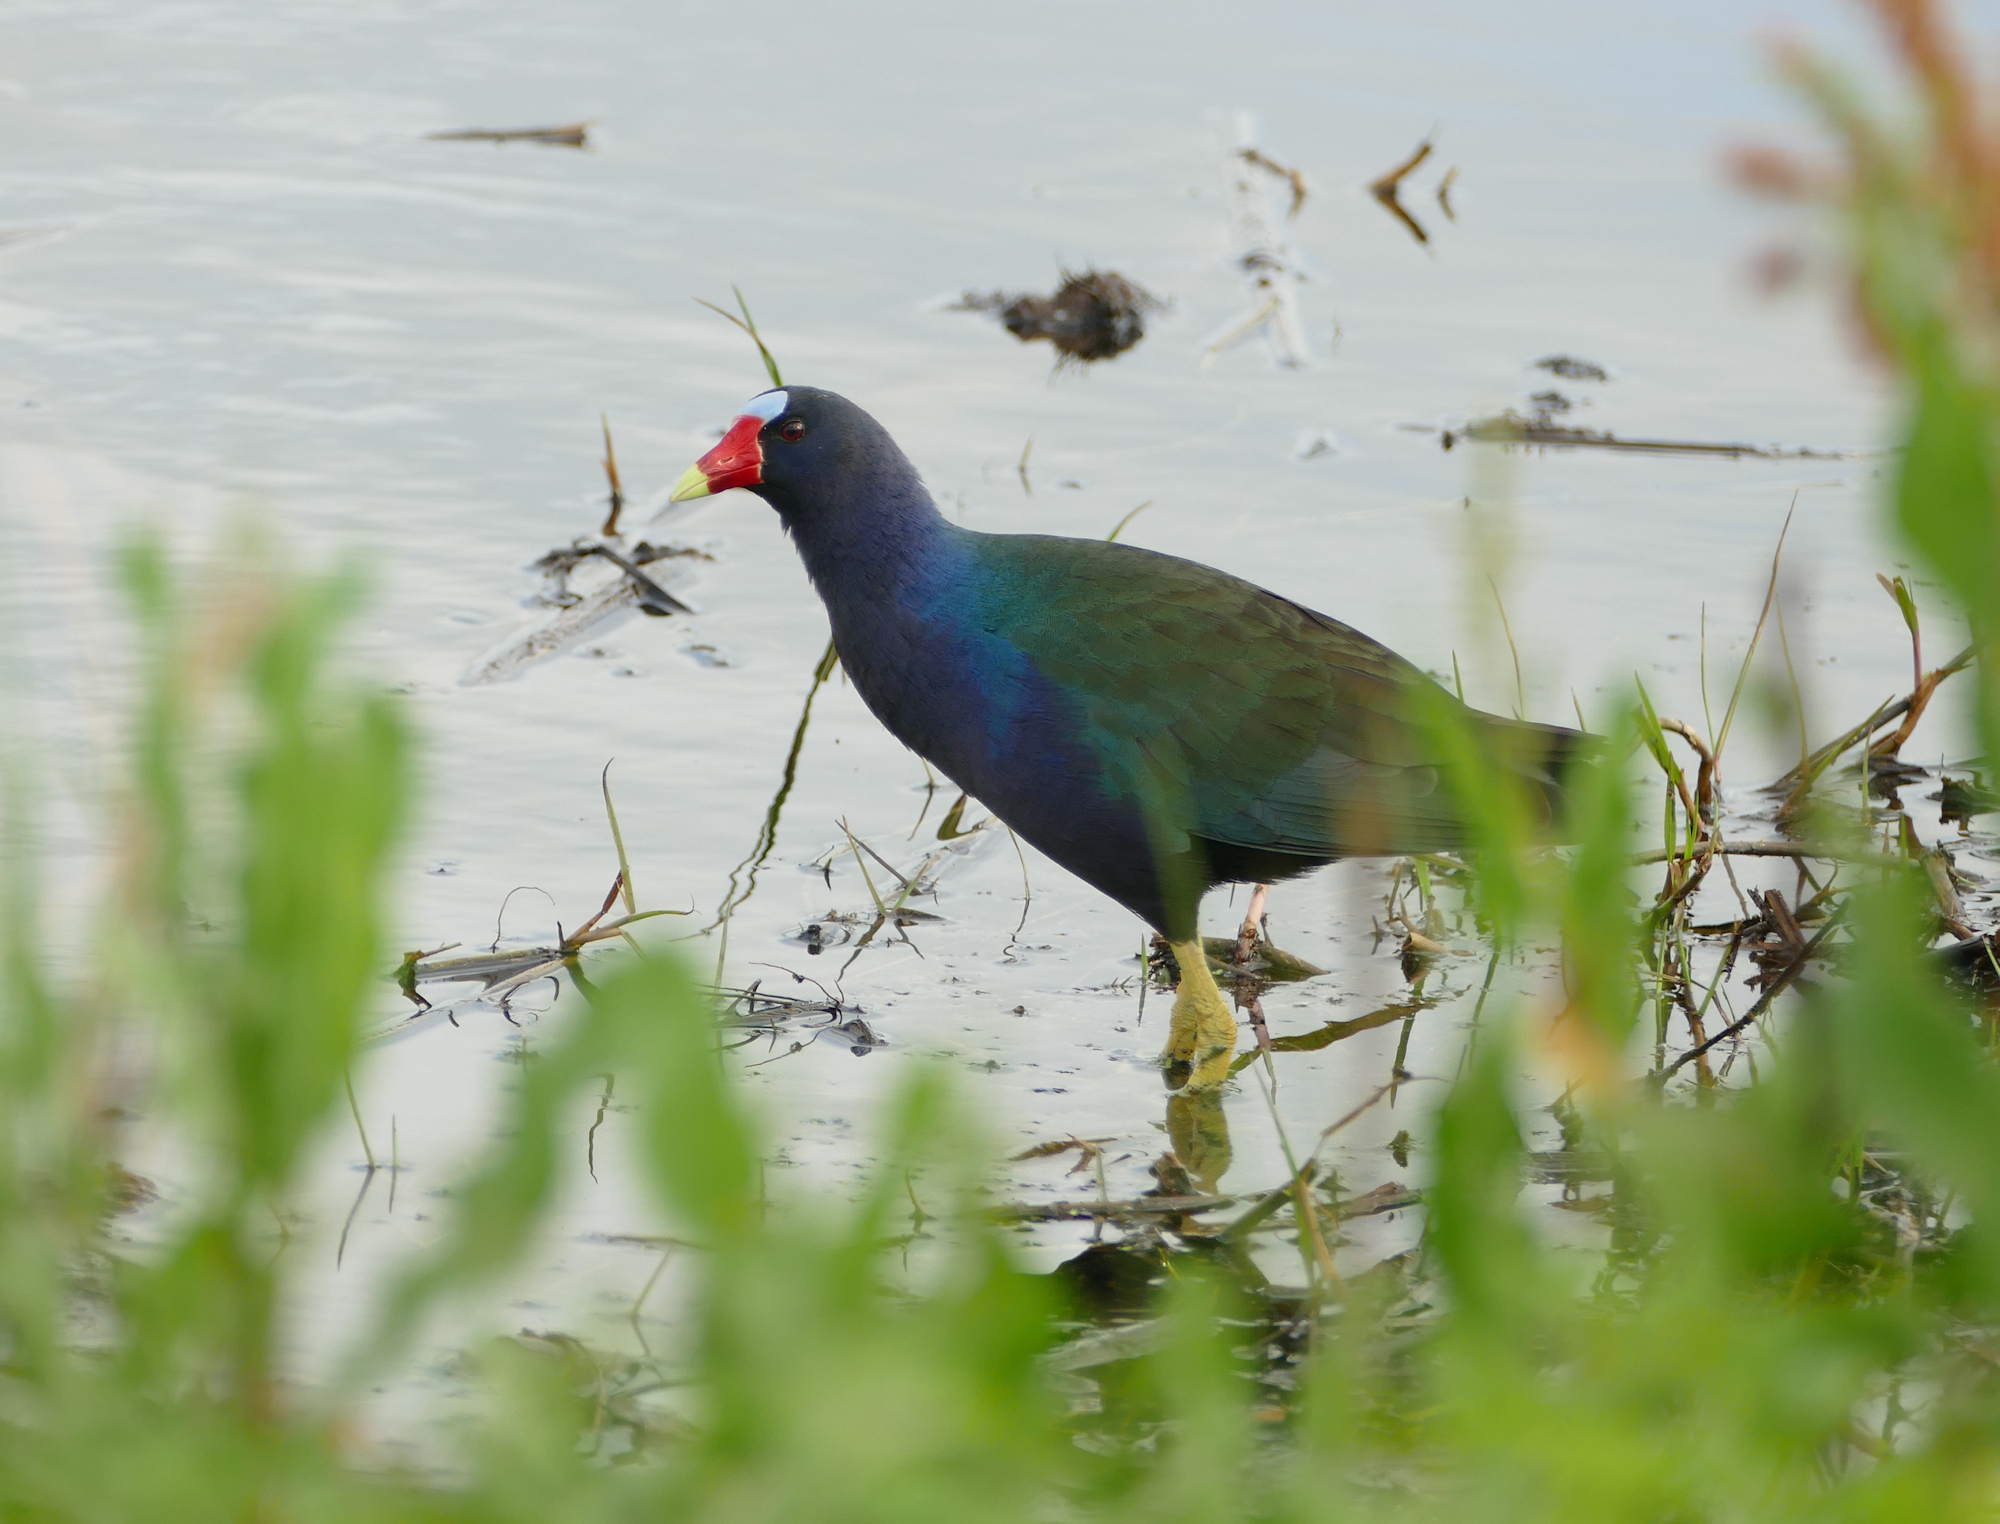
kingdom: Animalia
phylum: Chordata
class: Aves
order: Gruiformes
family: Rallidae
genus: Porphyrio
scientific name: Porphyrio martinica
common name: Purple gallinule
